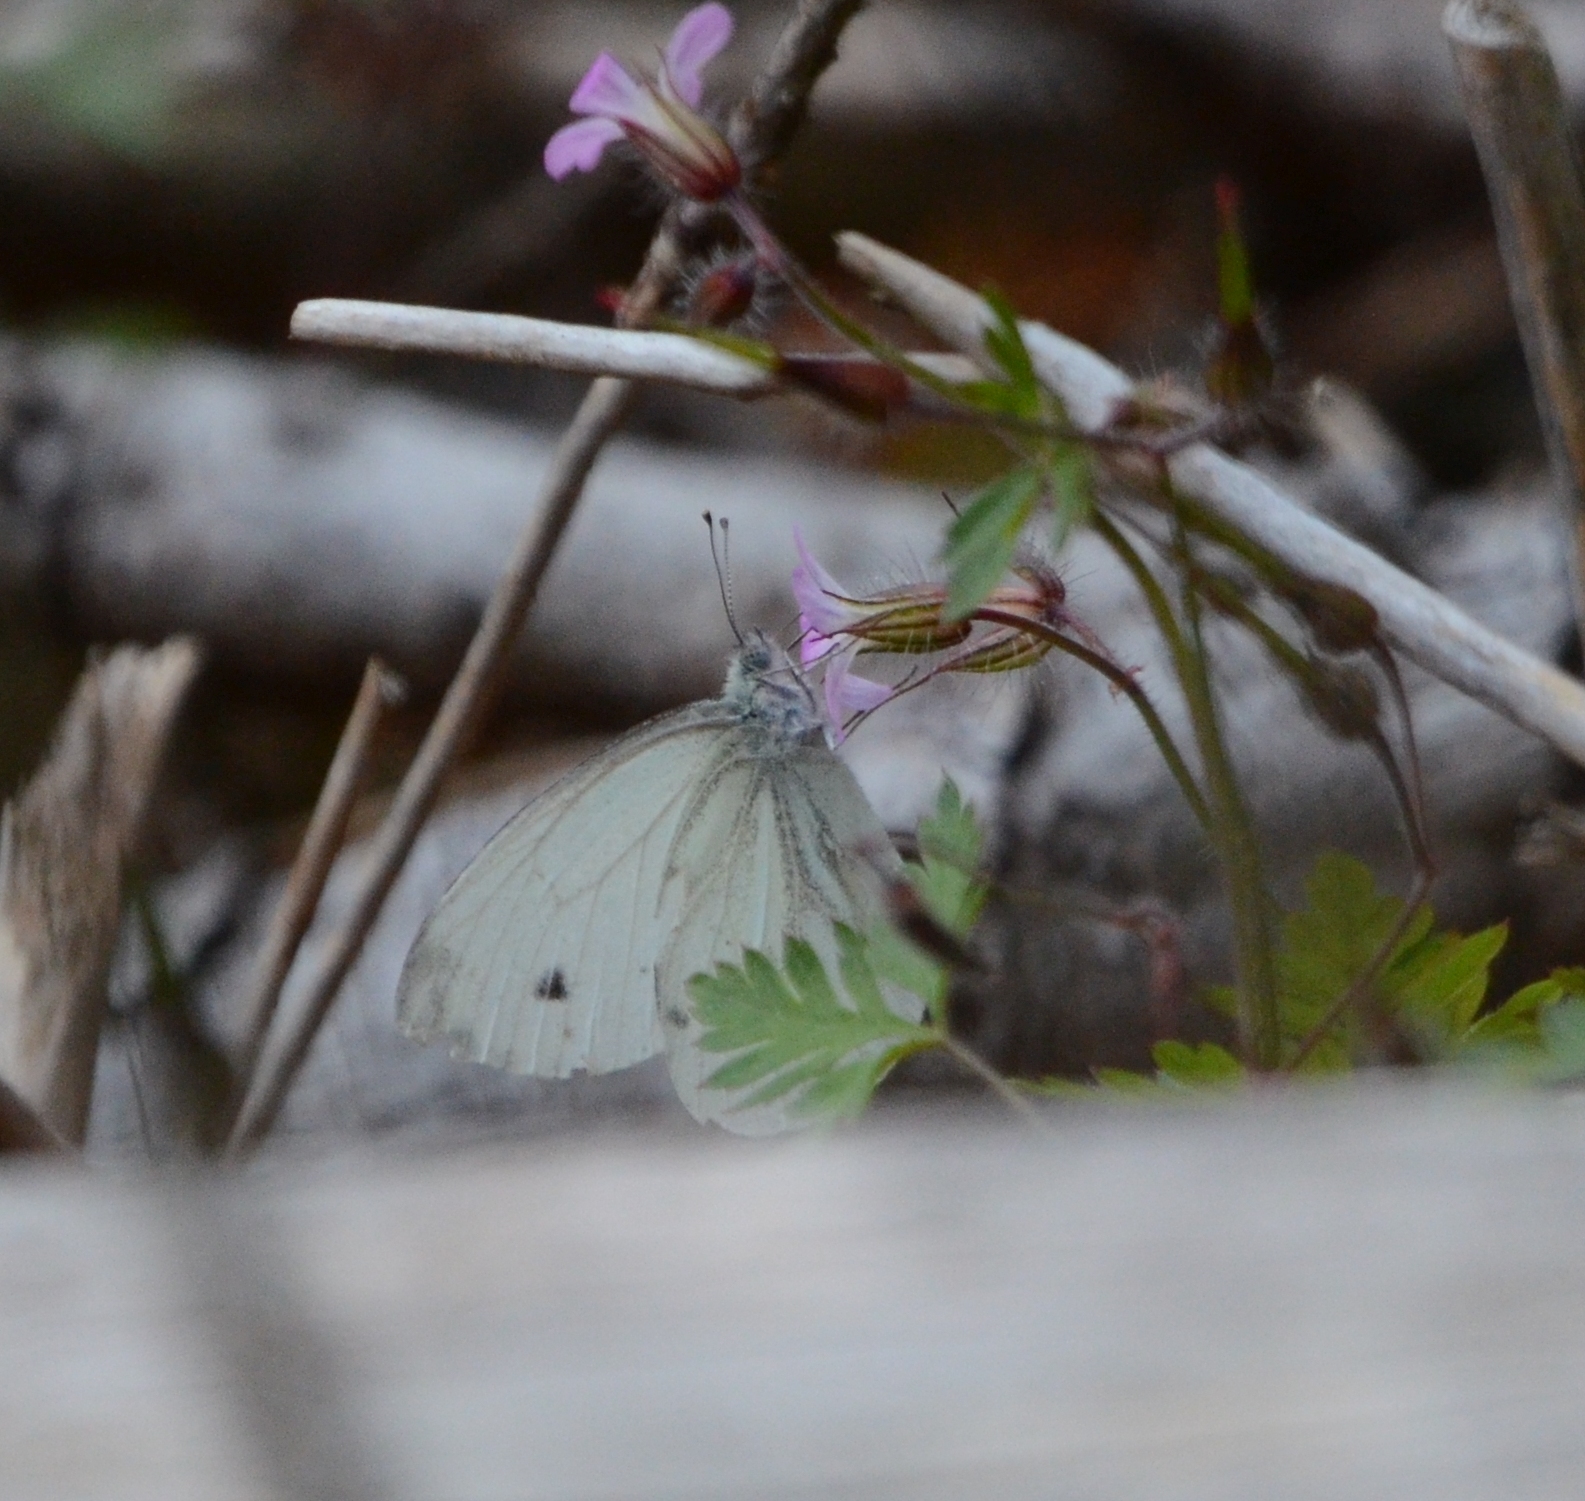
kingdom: Animalia
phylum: Arthropoda
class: Insecta
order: Lepidoptera
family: Pieridae
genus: Pieris
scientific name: Pieris napi
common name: Green-veined white
